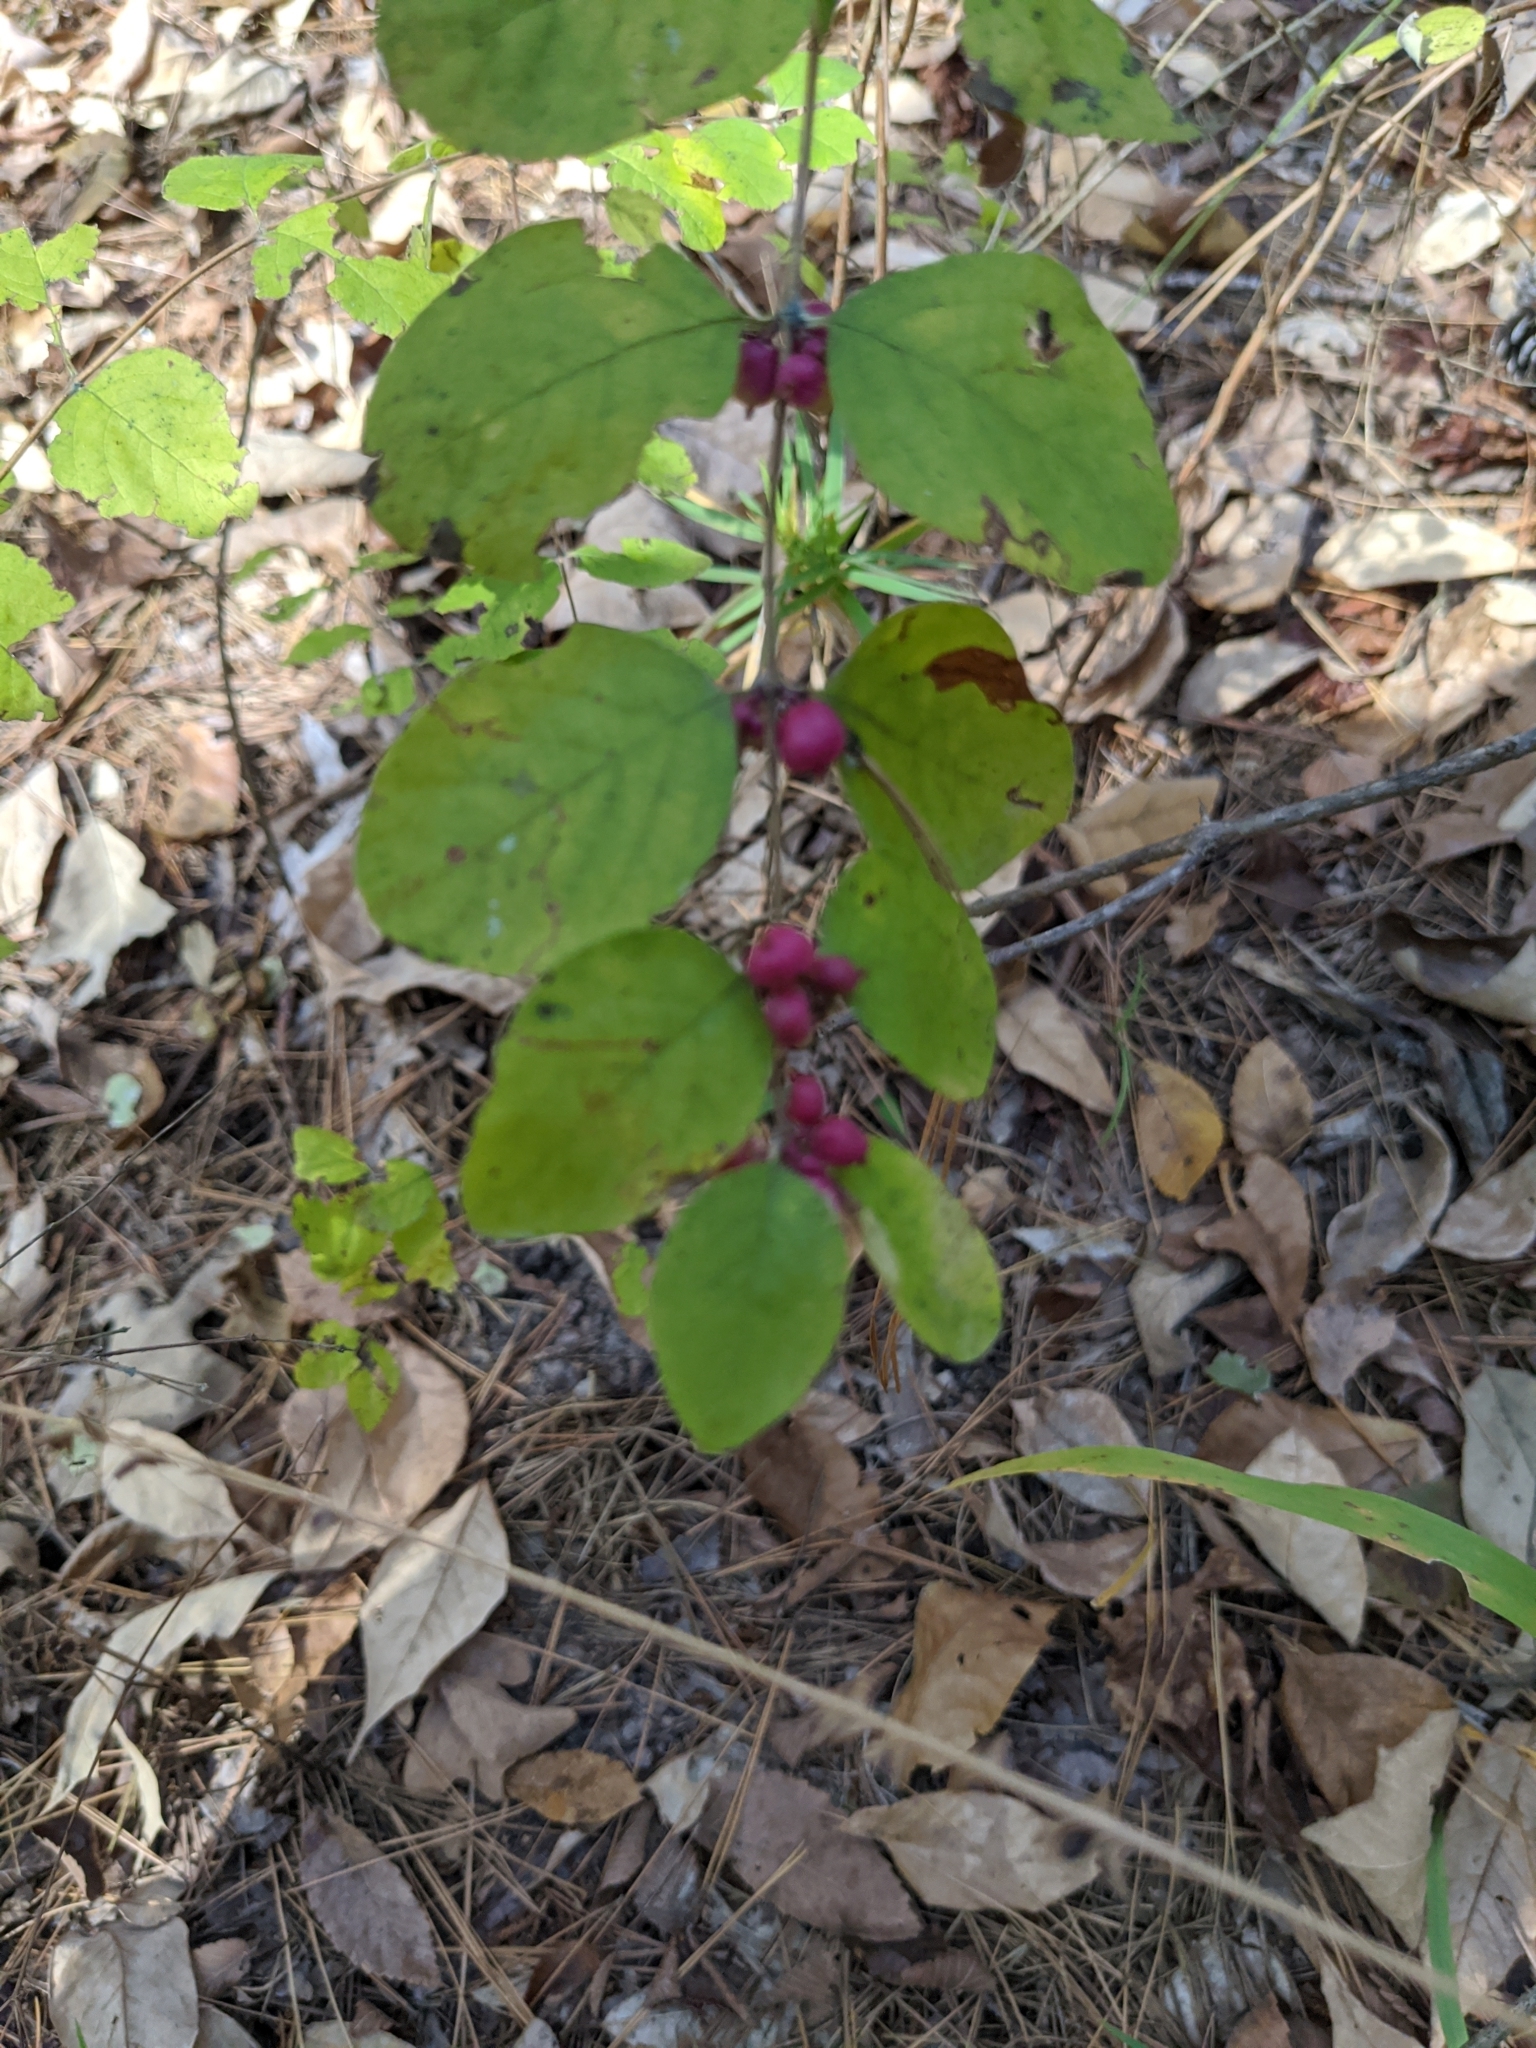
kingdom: Plantae
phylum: Tracheophyta
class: Magnoliopsida
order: Dipsacales
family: Caprifoliaceae
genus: Symphoricarpos
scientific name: Symphoricarpos orbiculatus
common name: Coralberry
